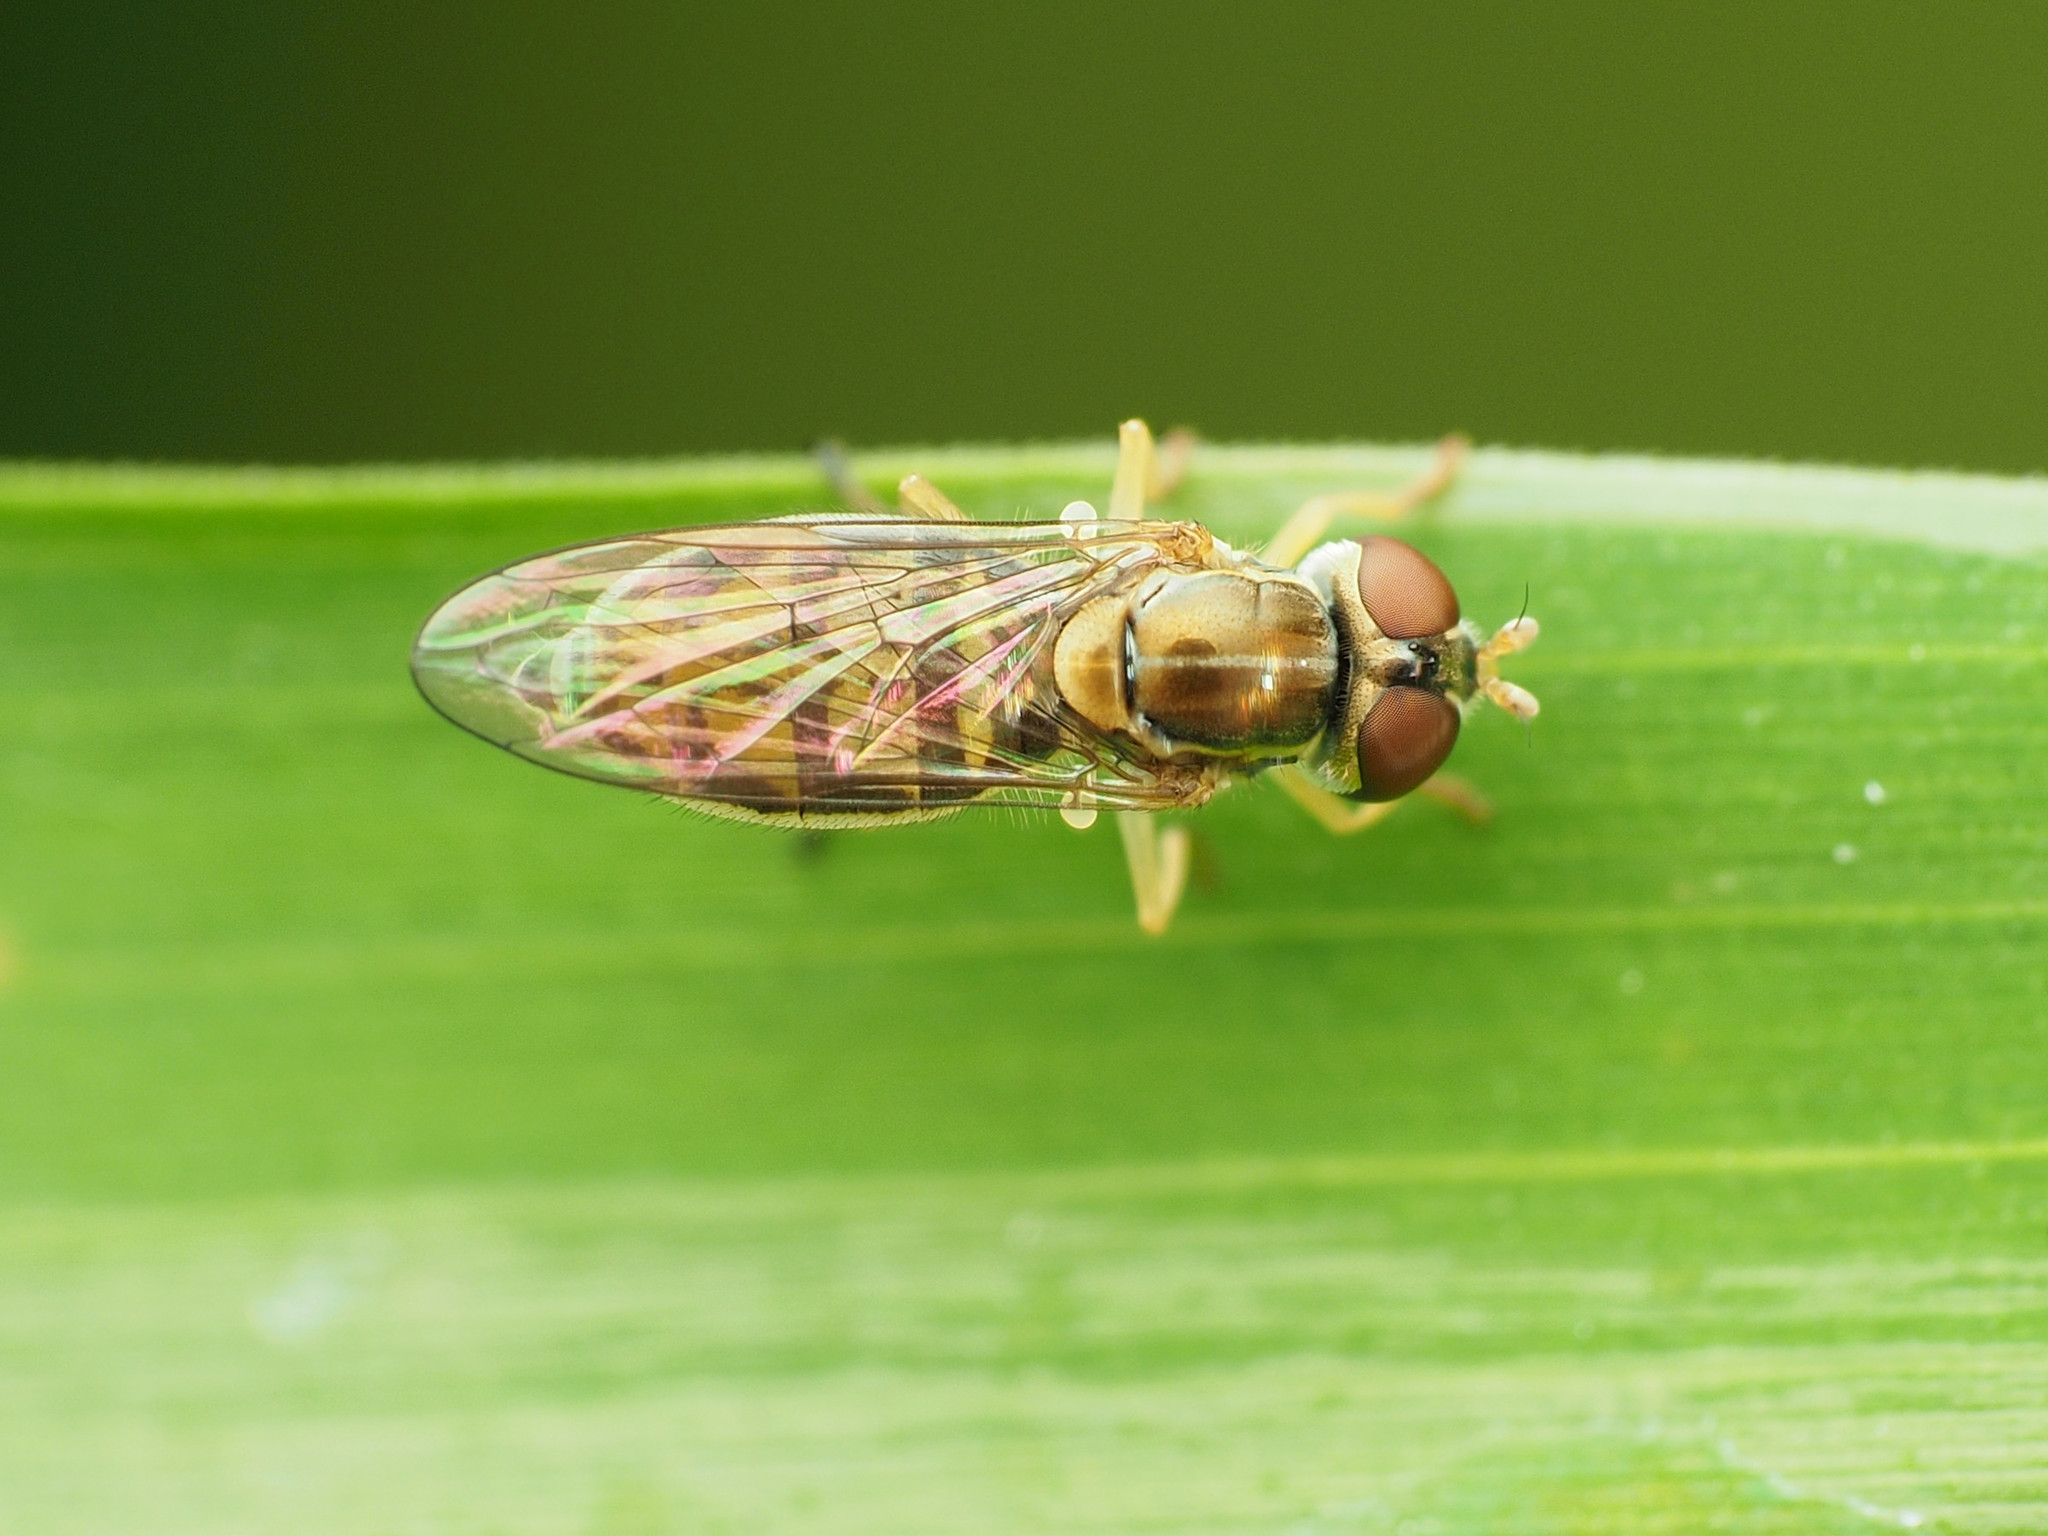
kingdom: Animalia
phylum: Arthropoda
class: Insecta
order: Diptera
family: Syrphidae
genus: Toxomerus
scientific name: Toxomerus marginatus
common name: Syrphid fly
